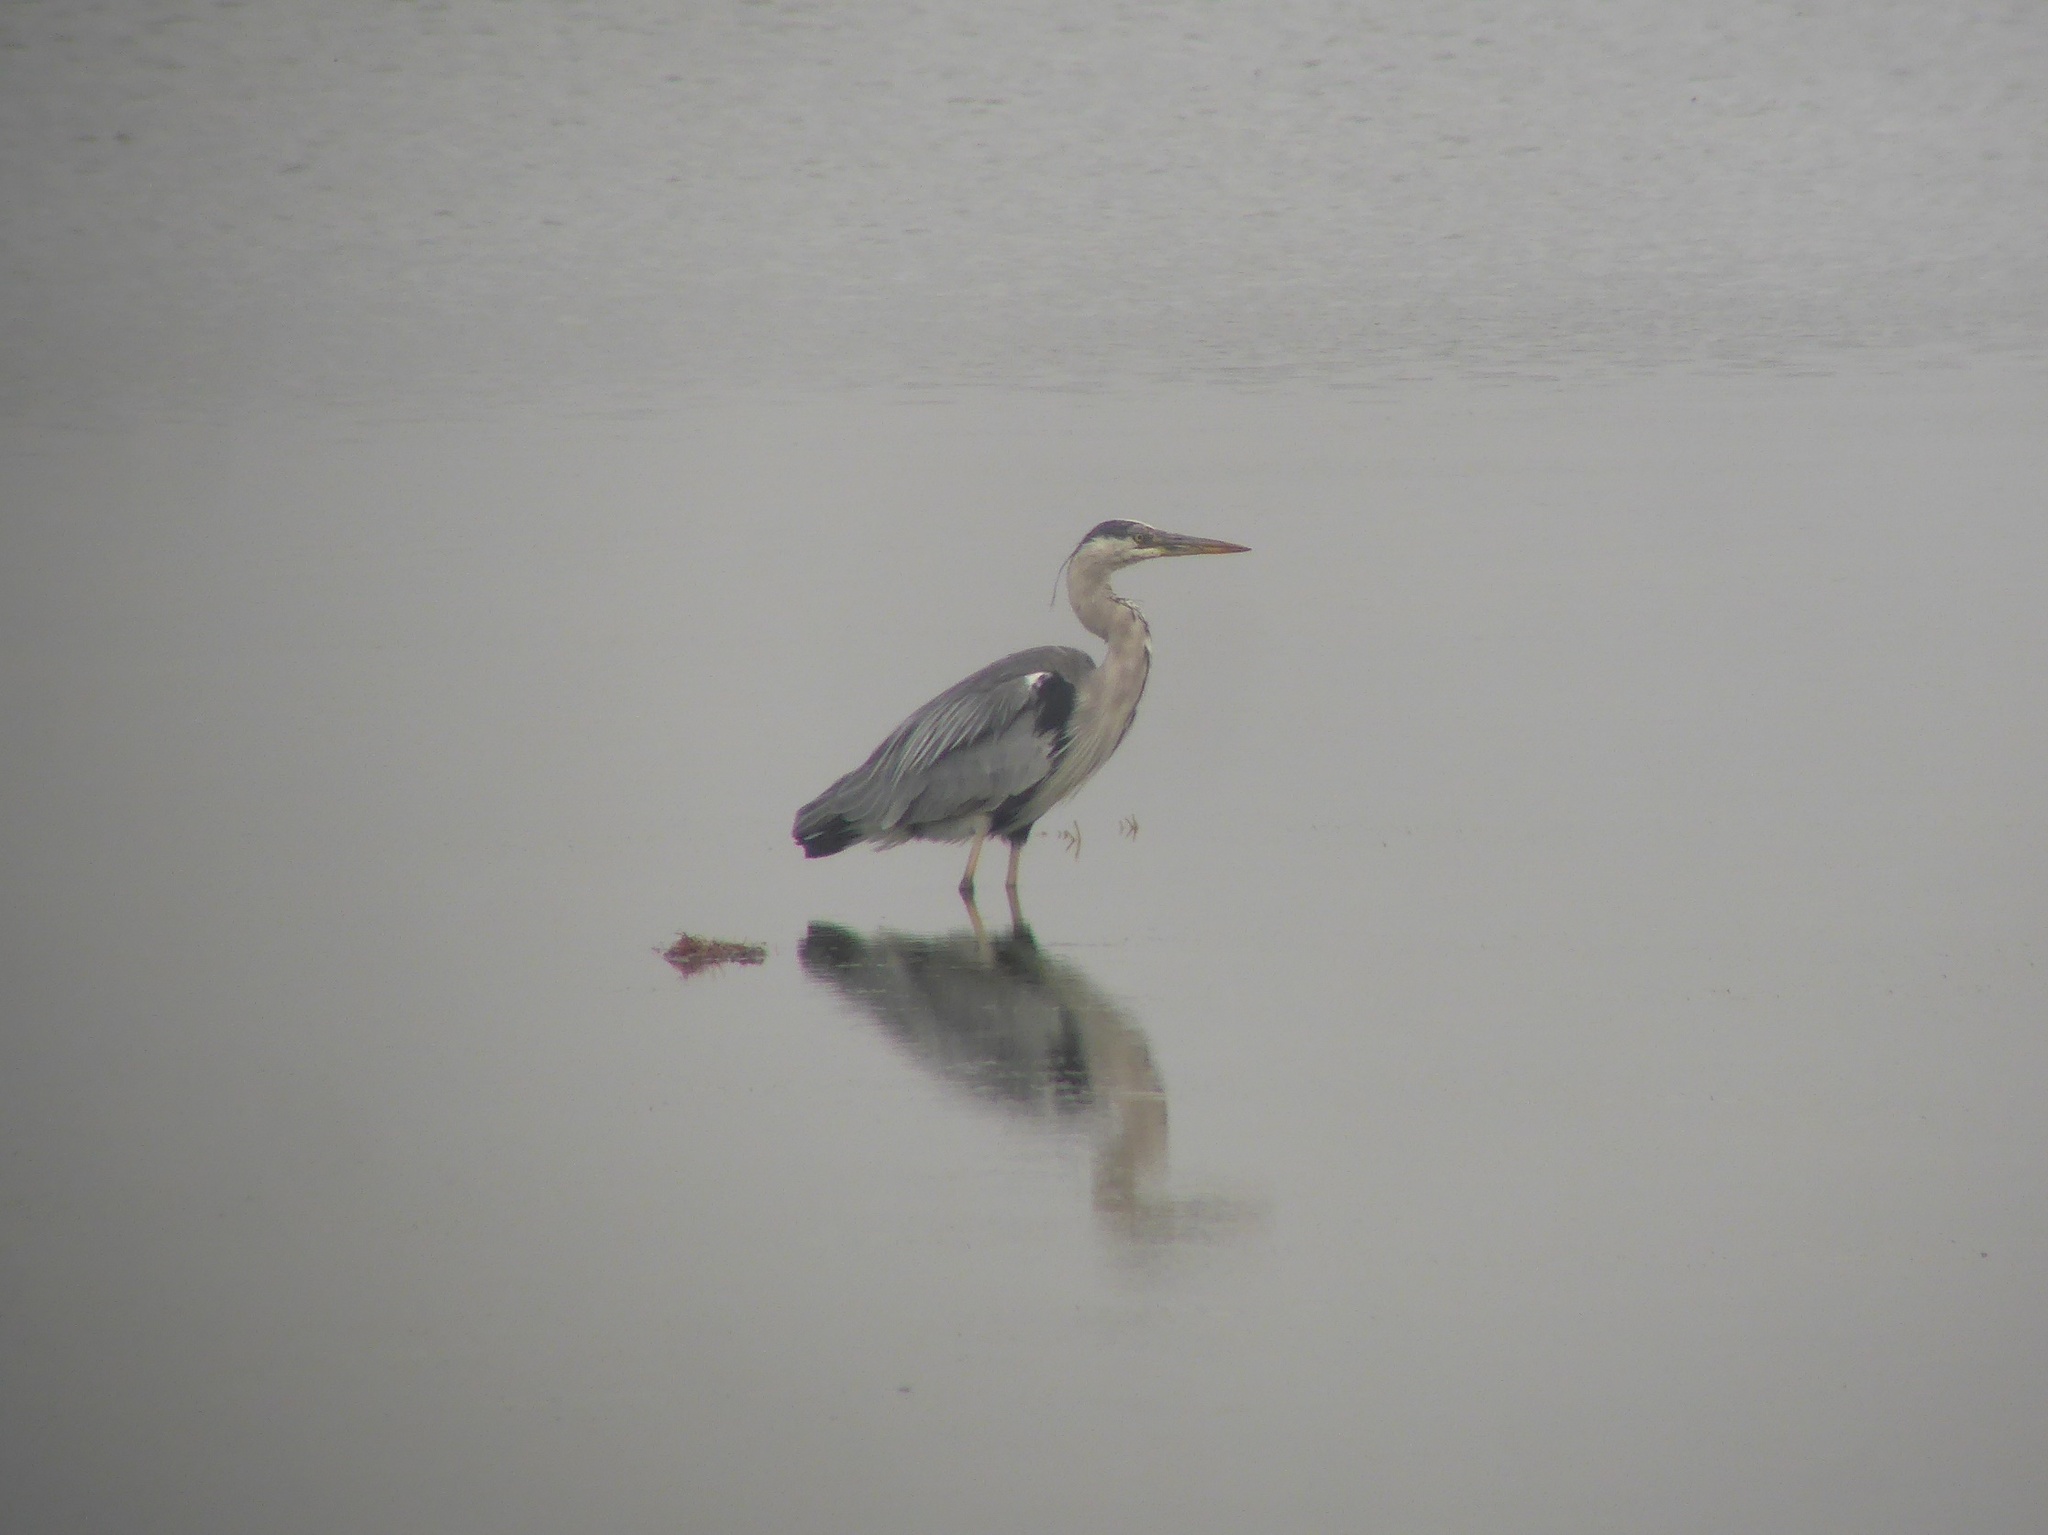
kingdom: Animalia
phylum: Chordata
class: Aves
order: Pelecaniformes
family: Ardeidae
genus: Ardea
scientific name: Ardea cinerea
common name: Grey heron
